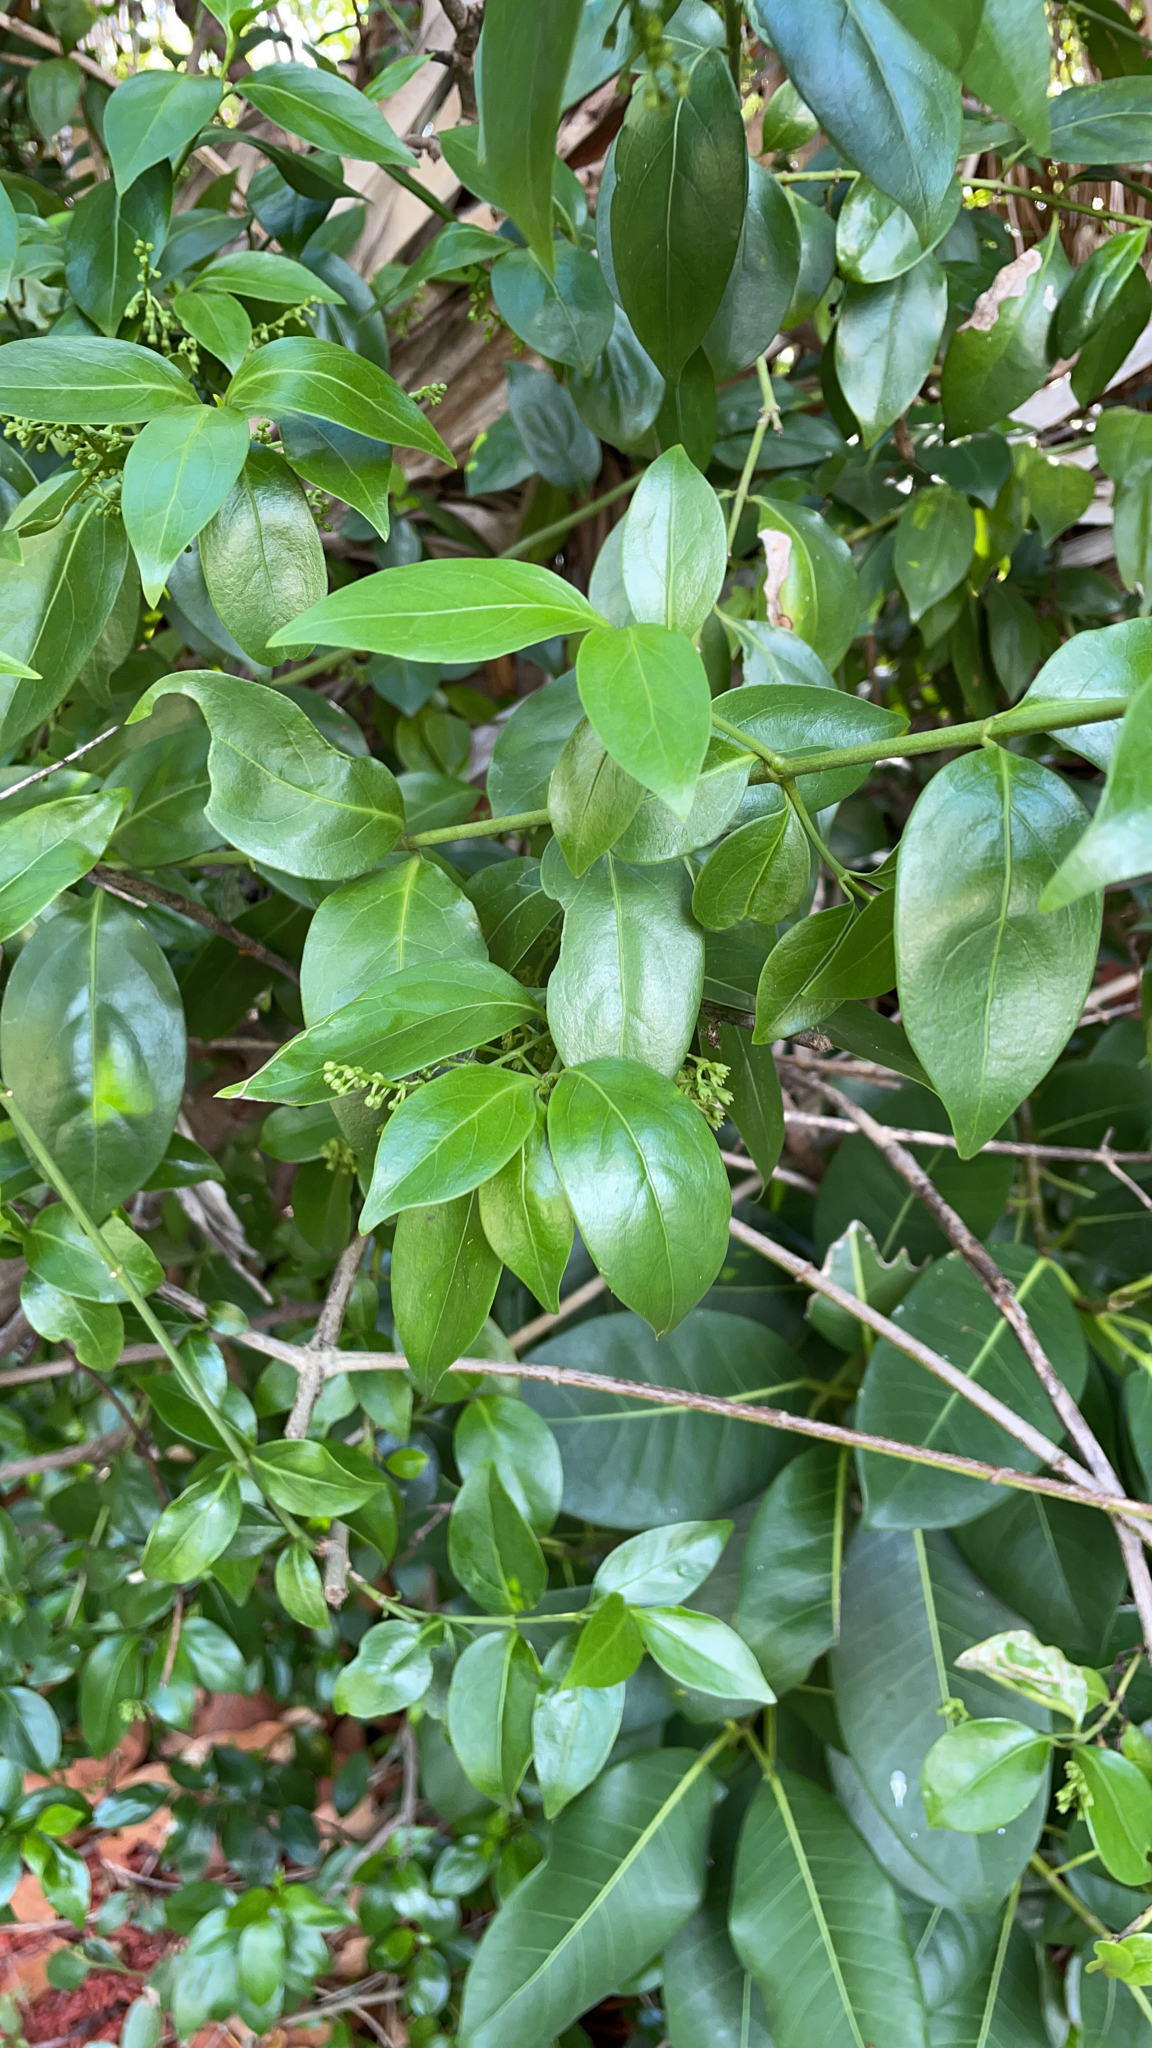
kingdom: Plantae
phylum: Tracheophyta
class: Magnoliopsida
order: Gentianales
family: Rubiaceae
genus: Chiococca
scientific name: Chiococca alba
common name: Snowberry
